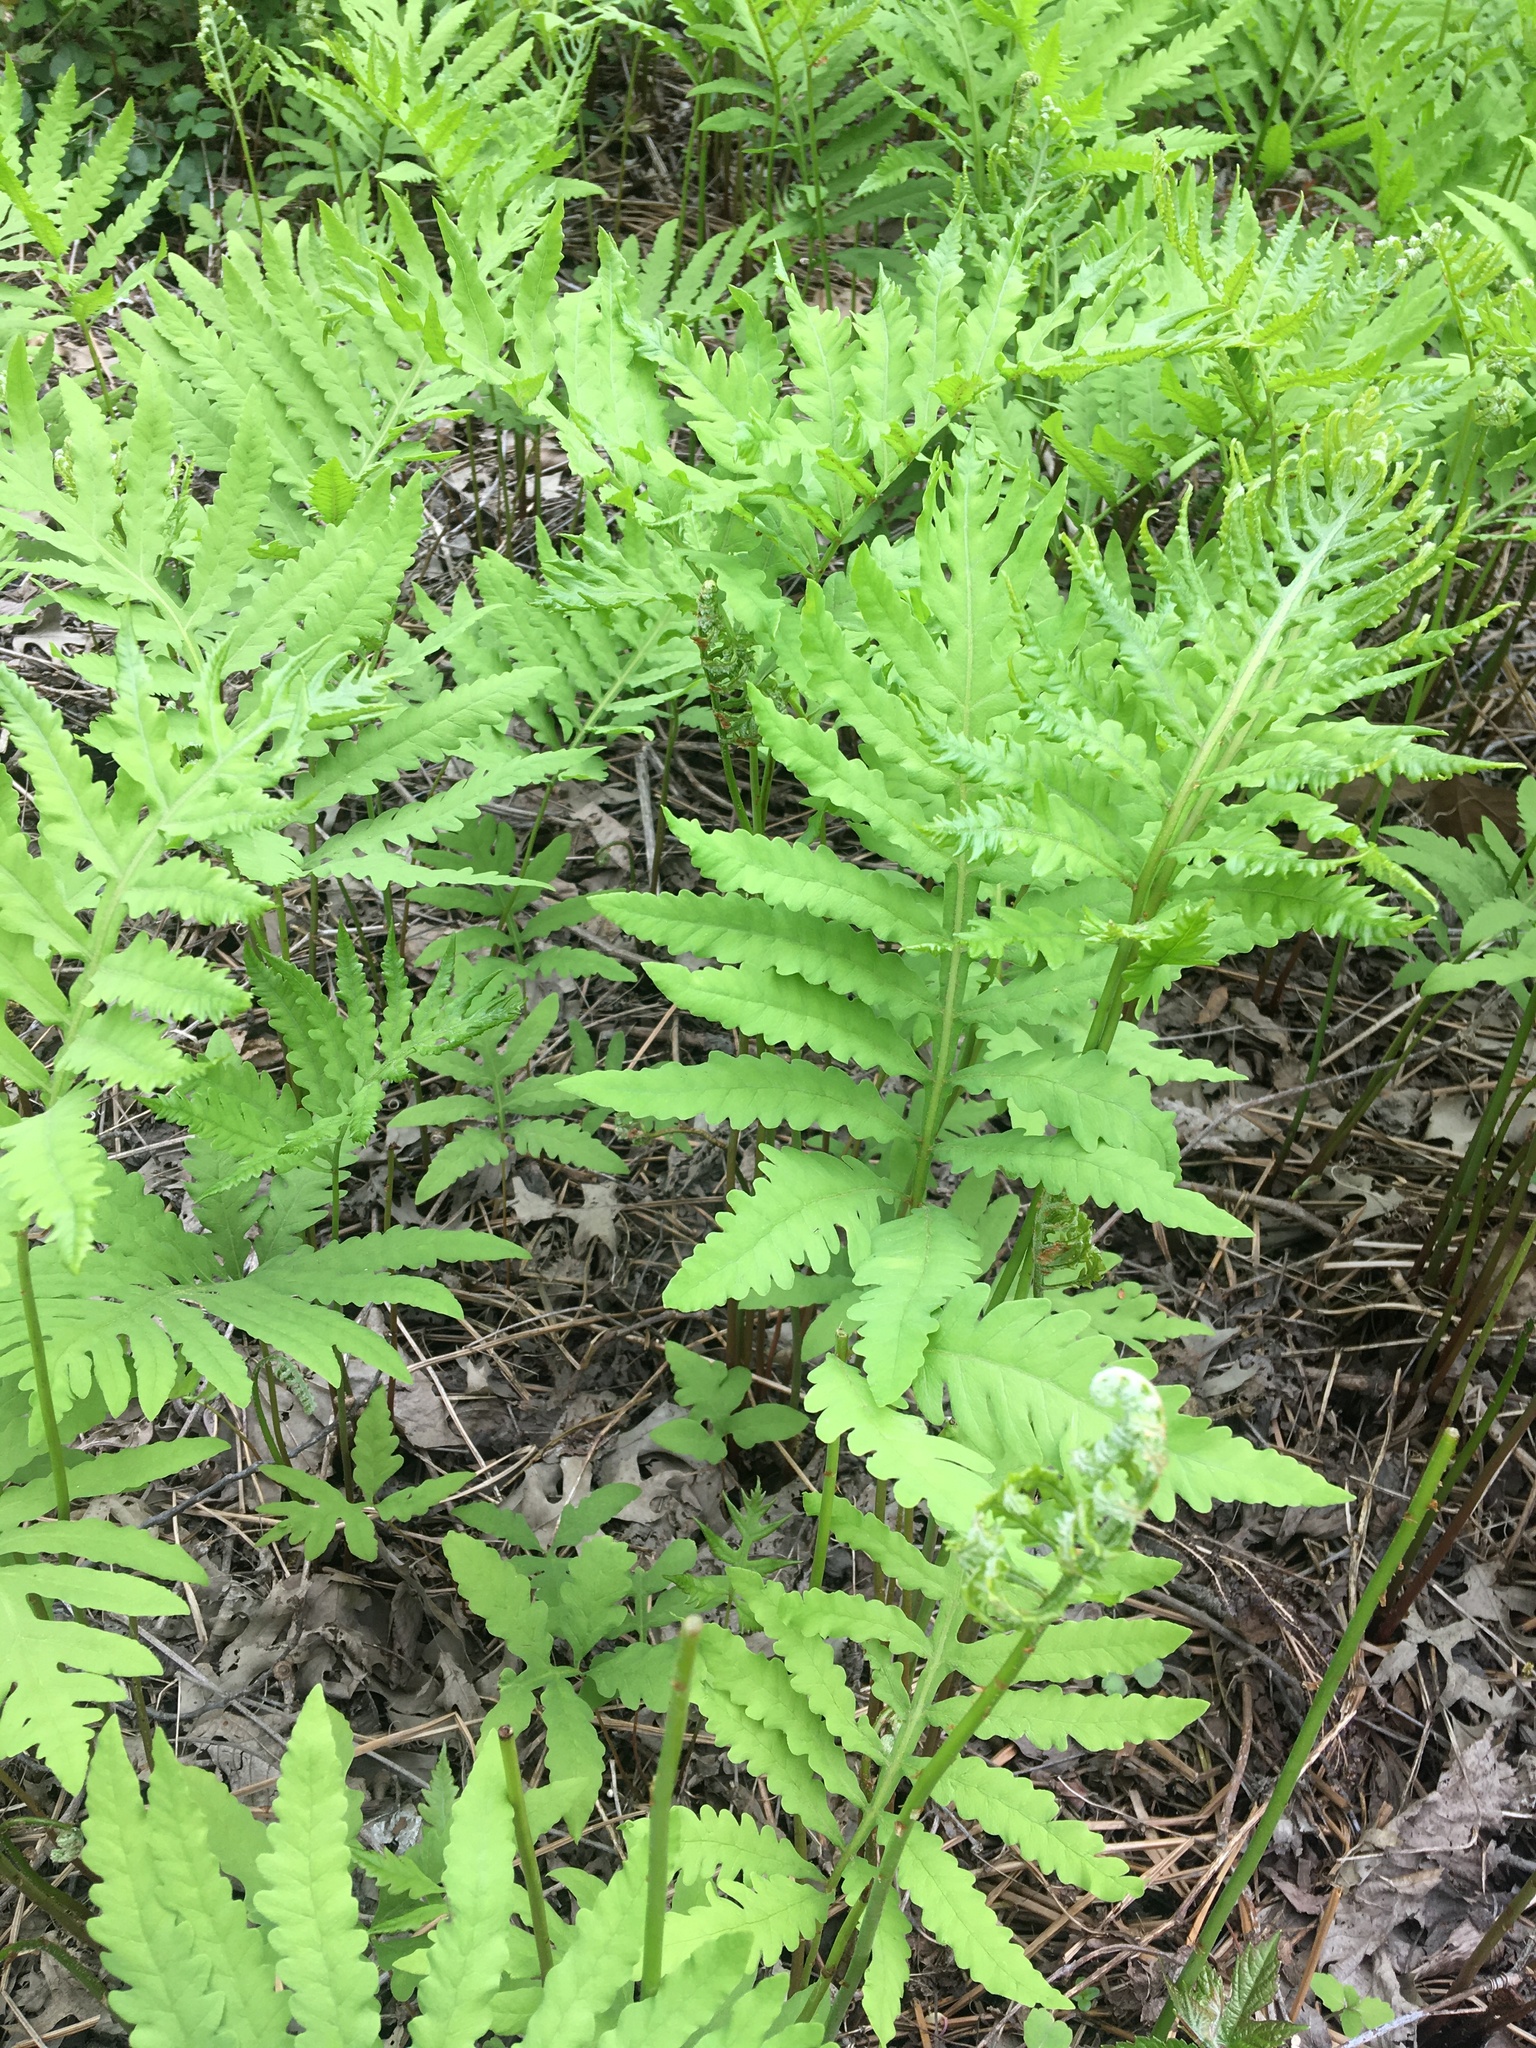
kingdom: Plantae
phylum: Tracheophyta
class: Polypodiopsida
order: Polypodiales
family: Onocleaceae
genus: Onoclea
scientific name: Onoclea sensibilis
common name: Sensitive fern
